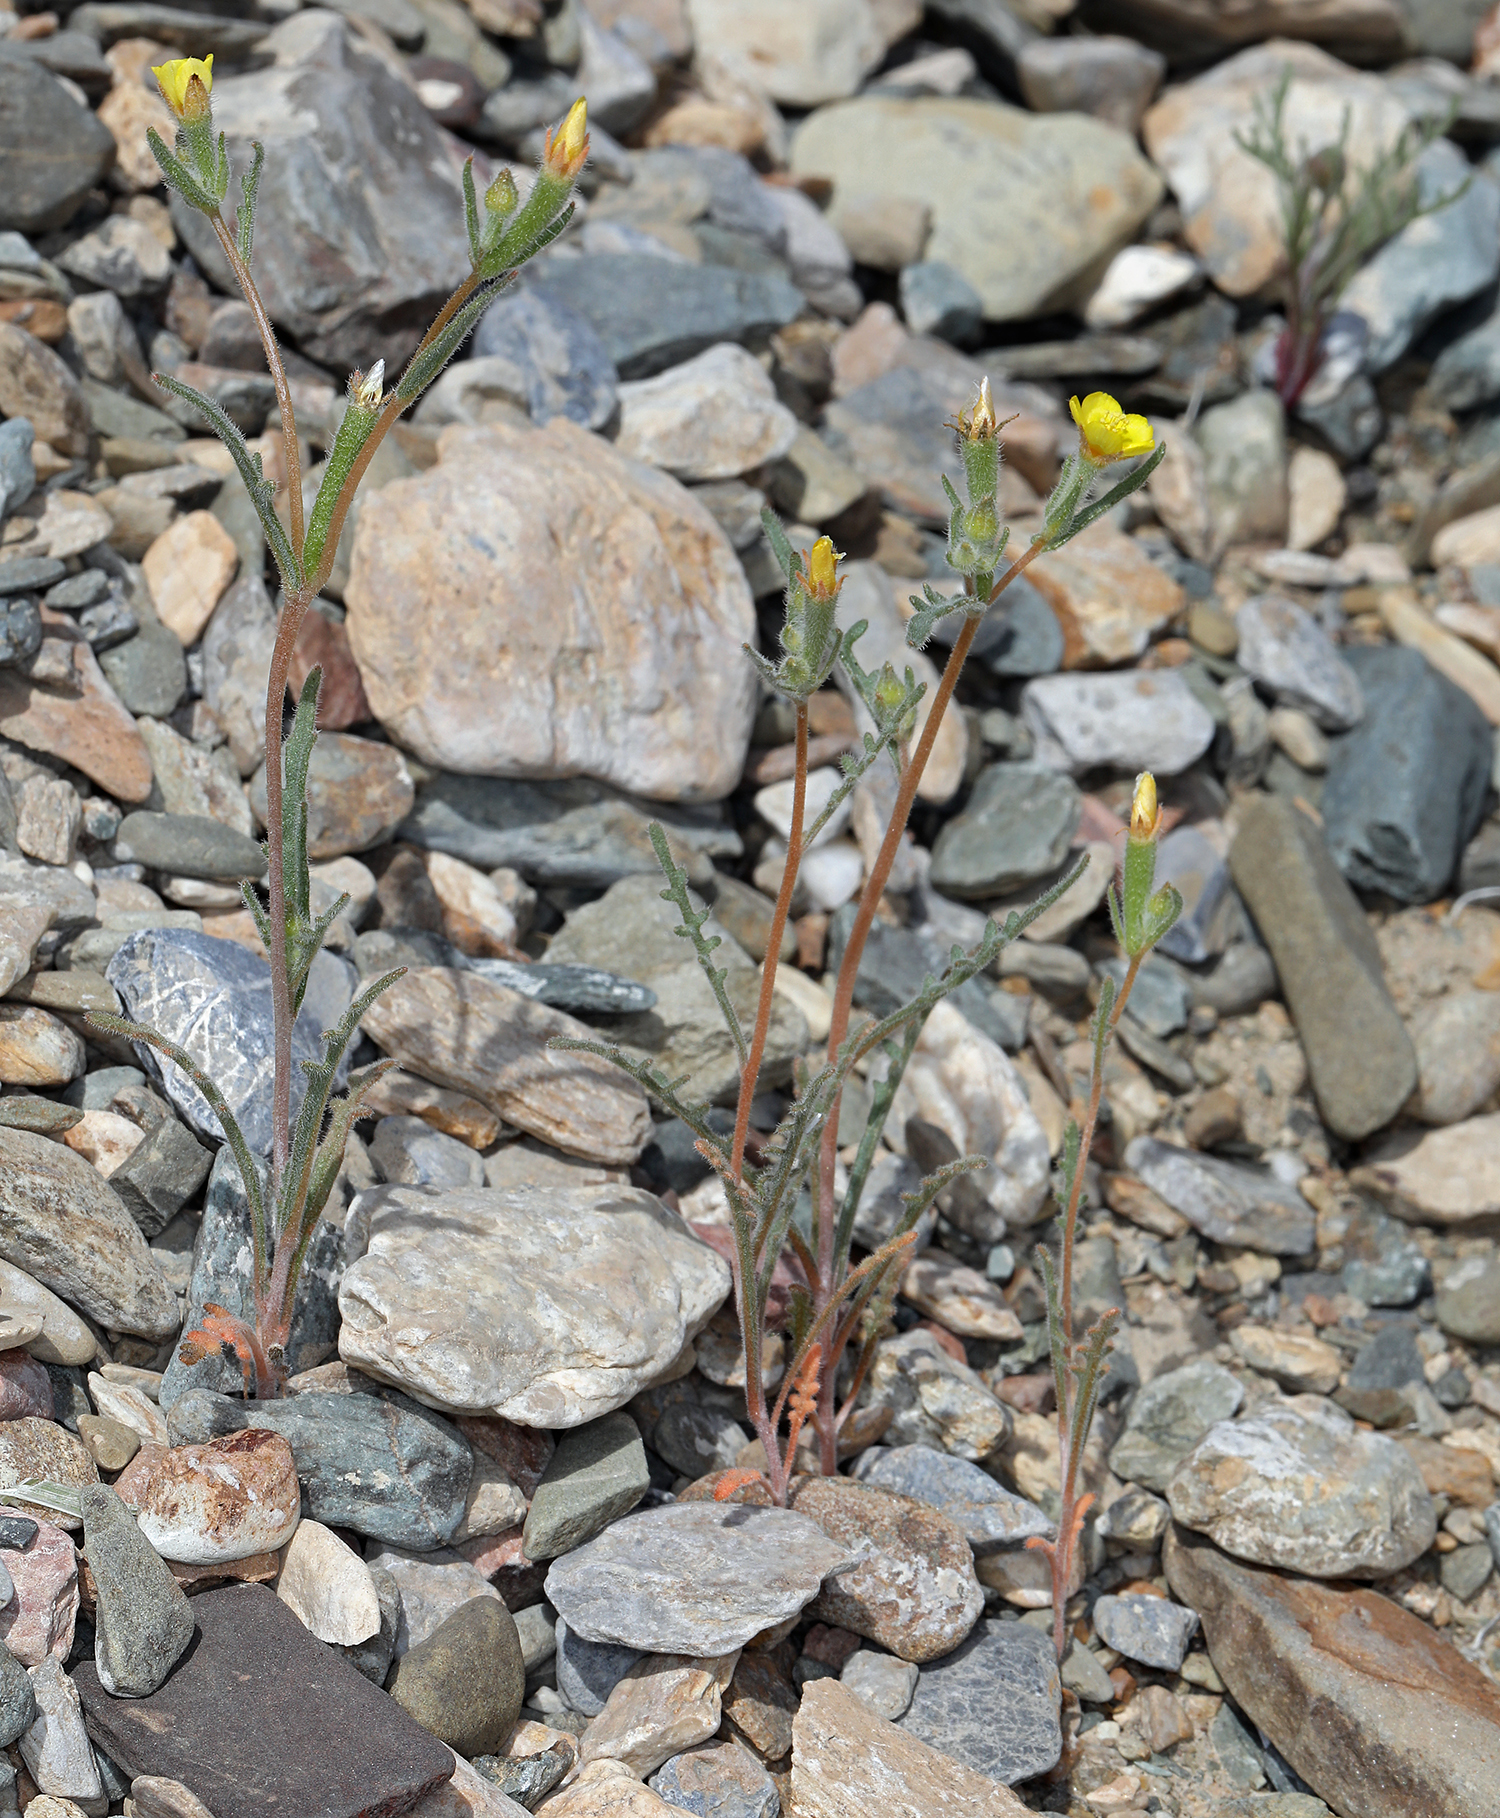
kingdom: Plantae
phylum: Tracheophyta
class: Magnoliopsida
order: Cornales
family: Loasaceae
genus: Mentzelia
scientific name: Mentzelia albicaulis
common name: White-stem blazingstar
